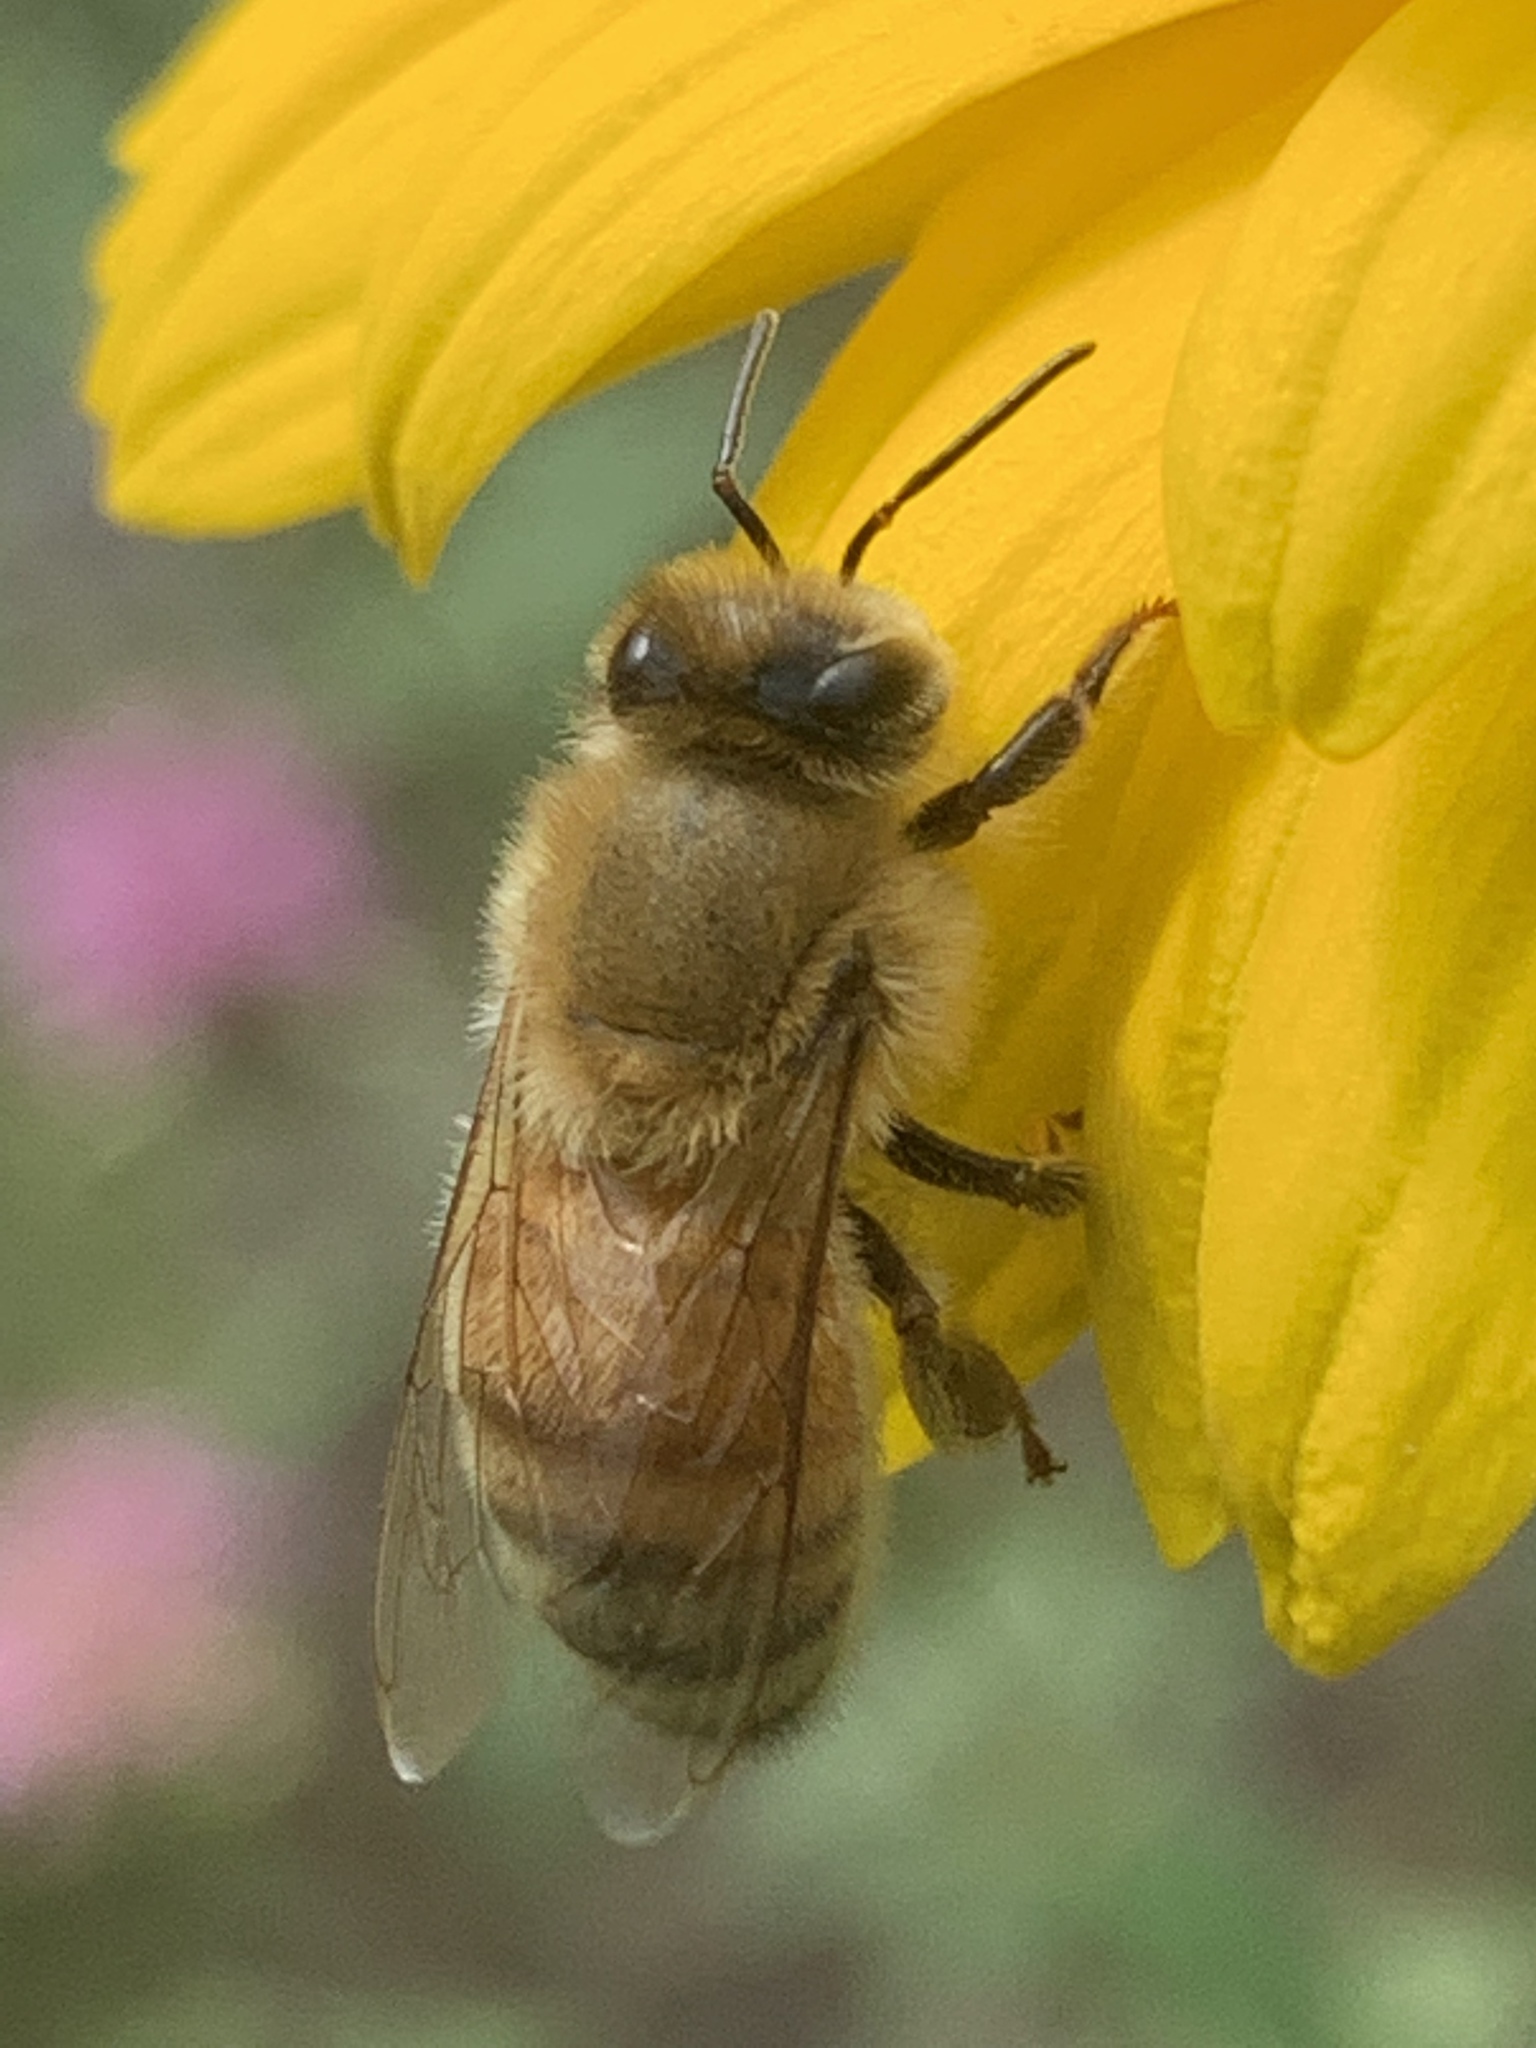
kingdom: Animalia
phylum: Arthropoda
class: Insecta
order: Hymenoptera
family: Apidae
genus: Apis
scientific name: Apis mellifera
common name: Honey bee
